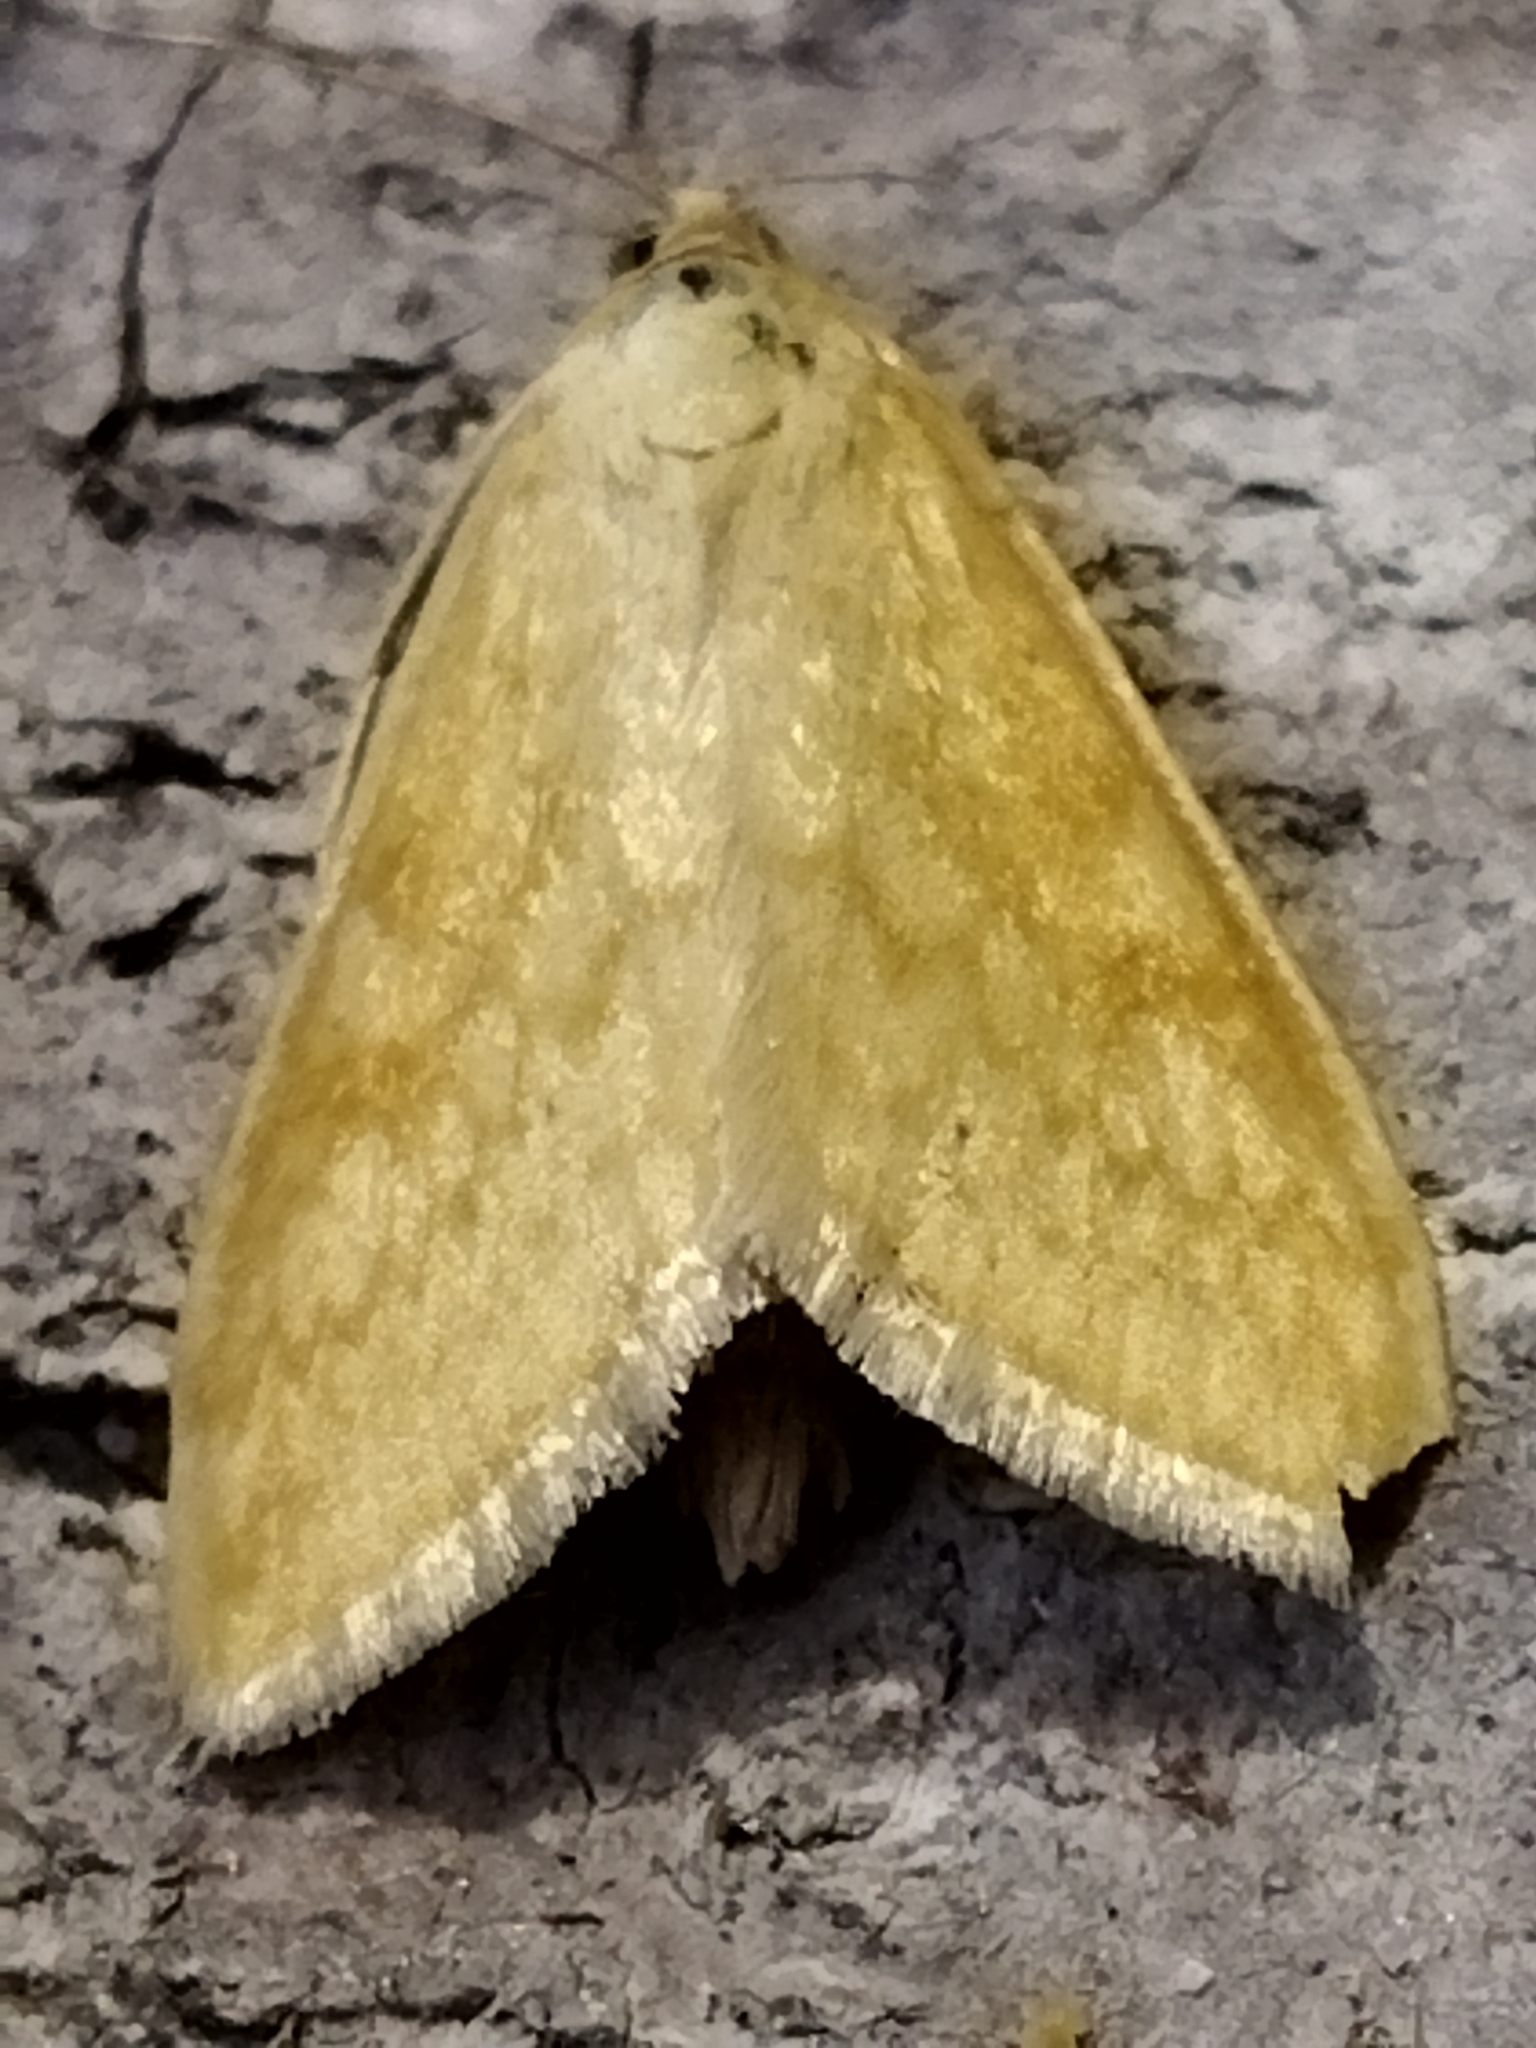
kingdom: Animalia
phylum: Arthropoda
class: Insecta
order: Lepidoptera
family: Crambidae
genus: Sitochroa
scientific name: Sitochroa verticalis
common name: Lesser pearl
